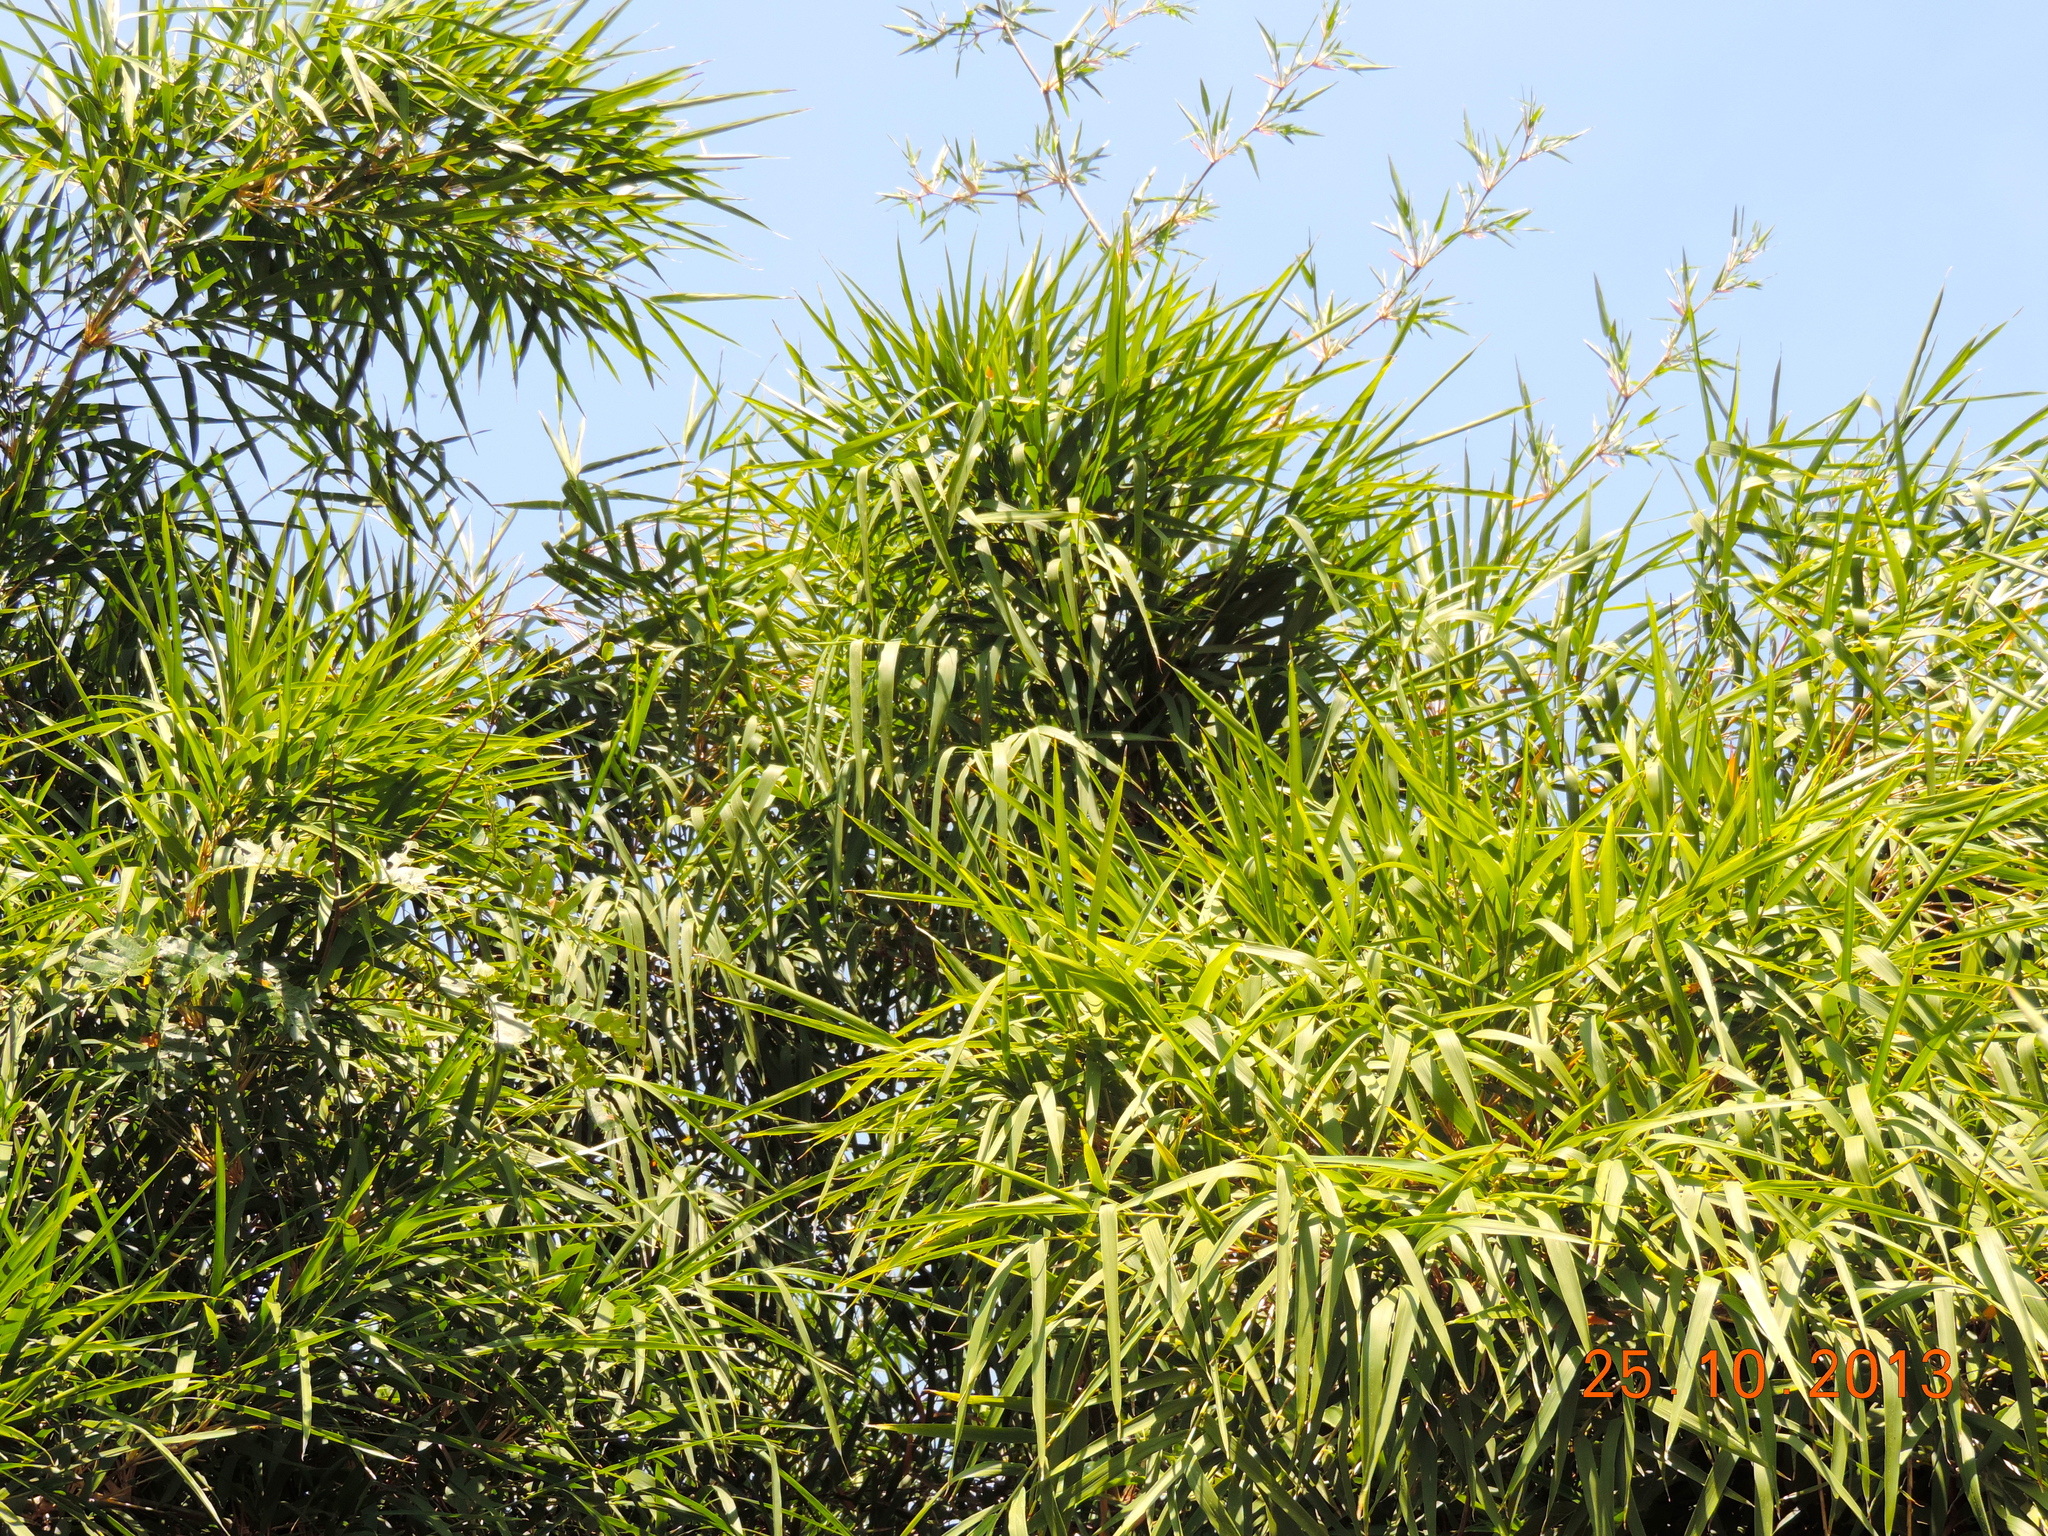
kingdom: Plantae
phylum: Tracheophyta
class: Liliopsida
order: Poales
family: Poaceae
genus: Guadua
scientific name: Guadua paniculata
